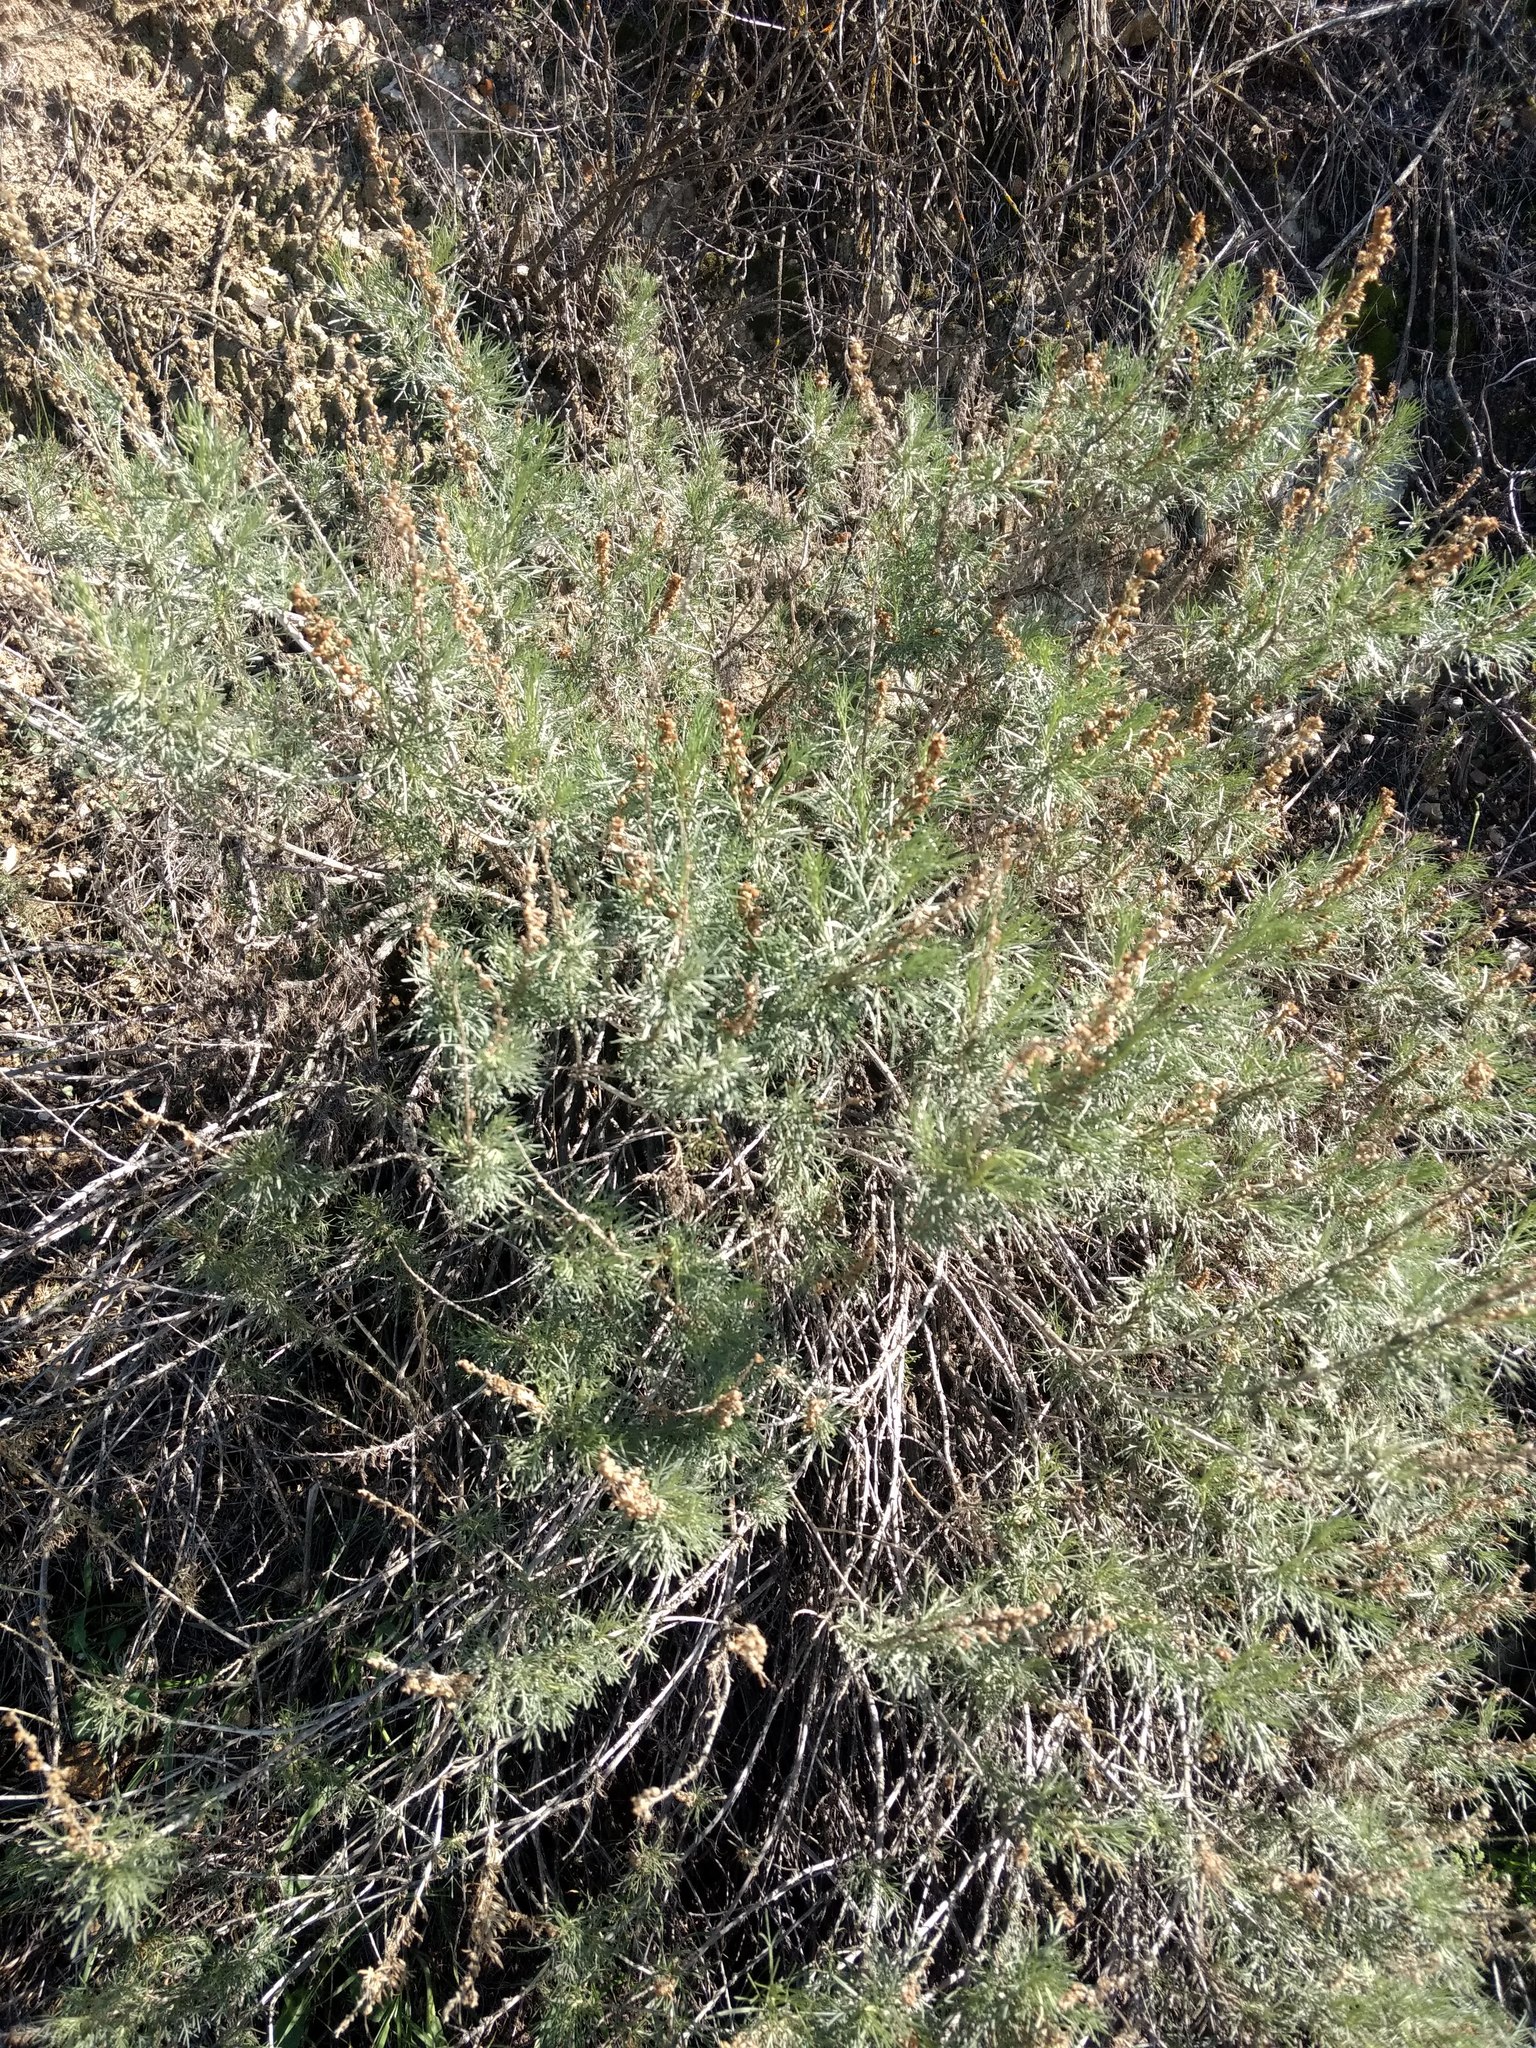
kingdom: Plantae
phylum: Tracheophyta
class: Magnoliopsida
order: Asterales
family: Asteraceae
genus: Artemisia
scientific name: Artemisia californica
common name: California sagebrush
